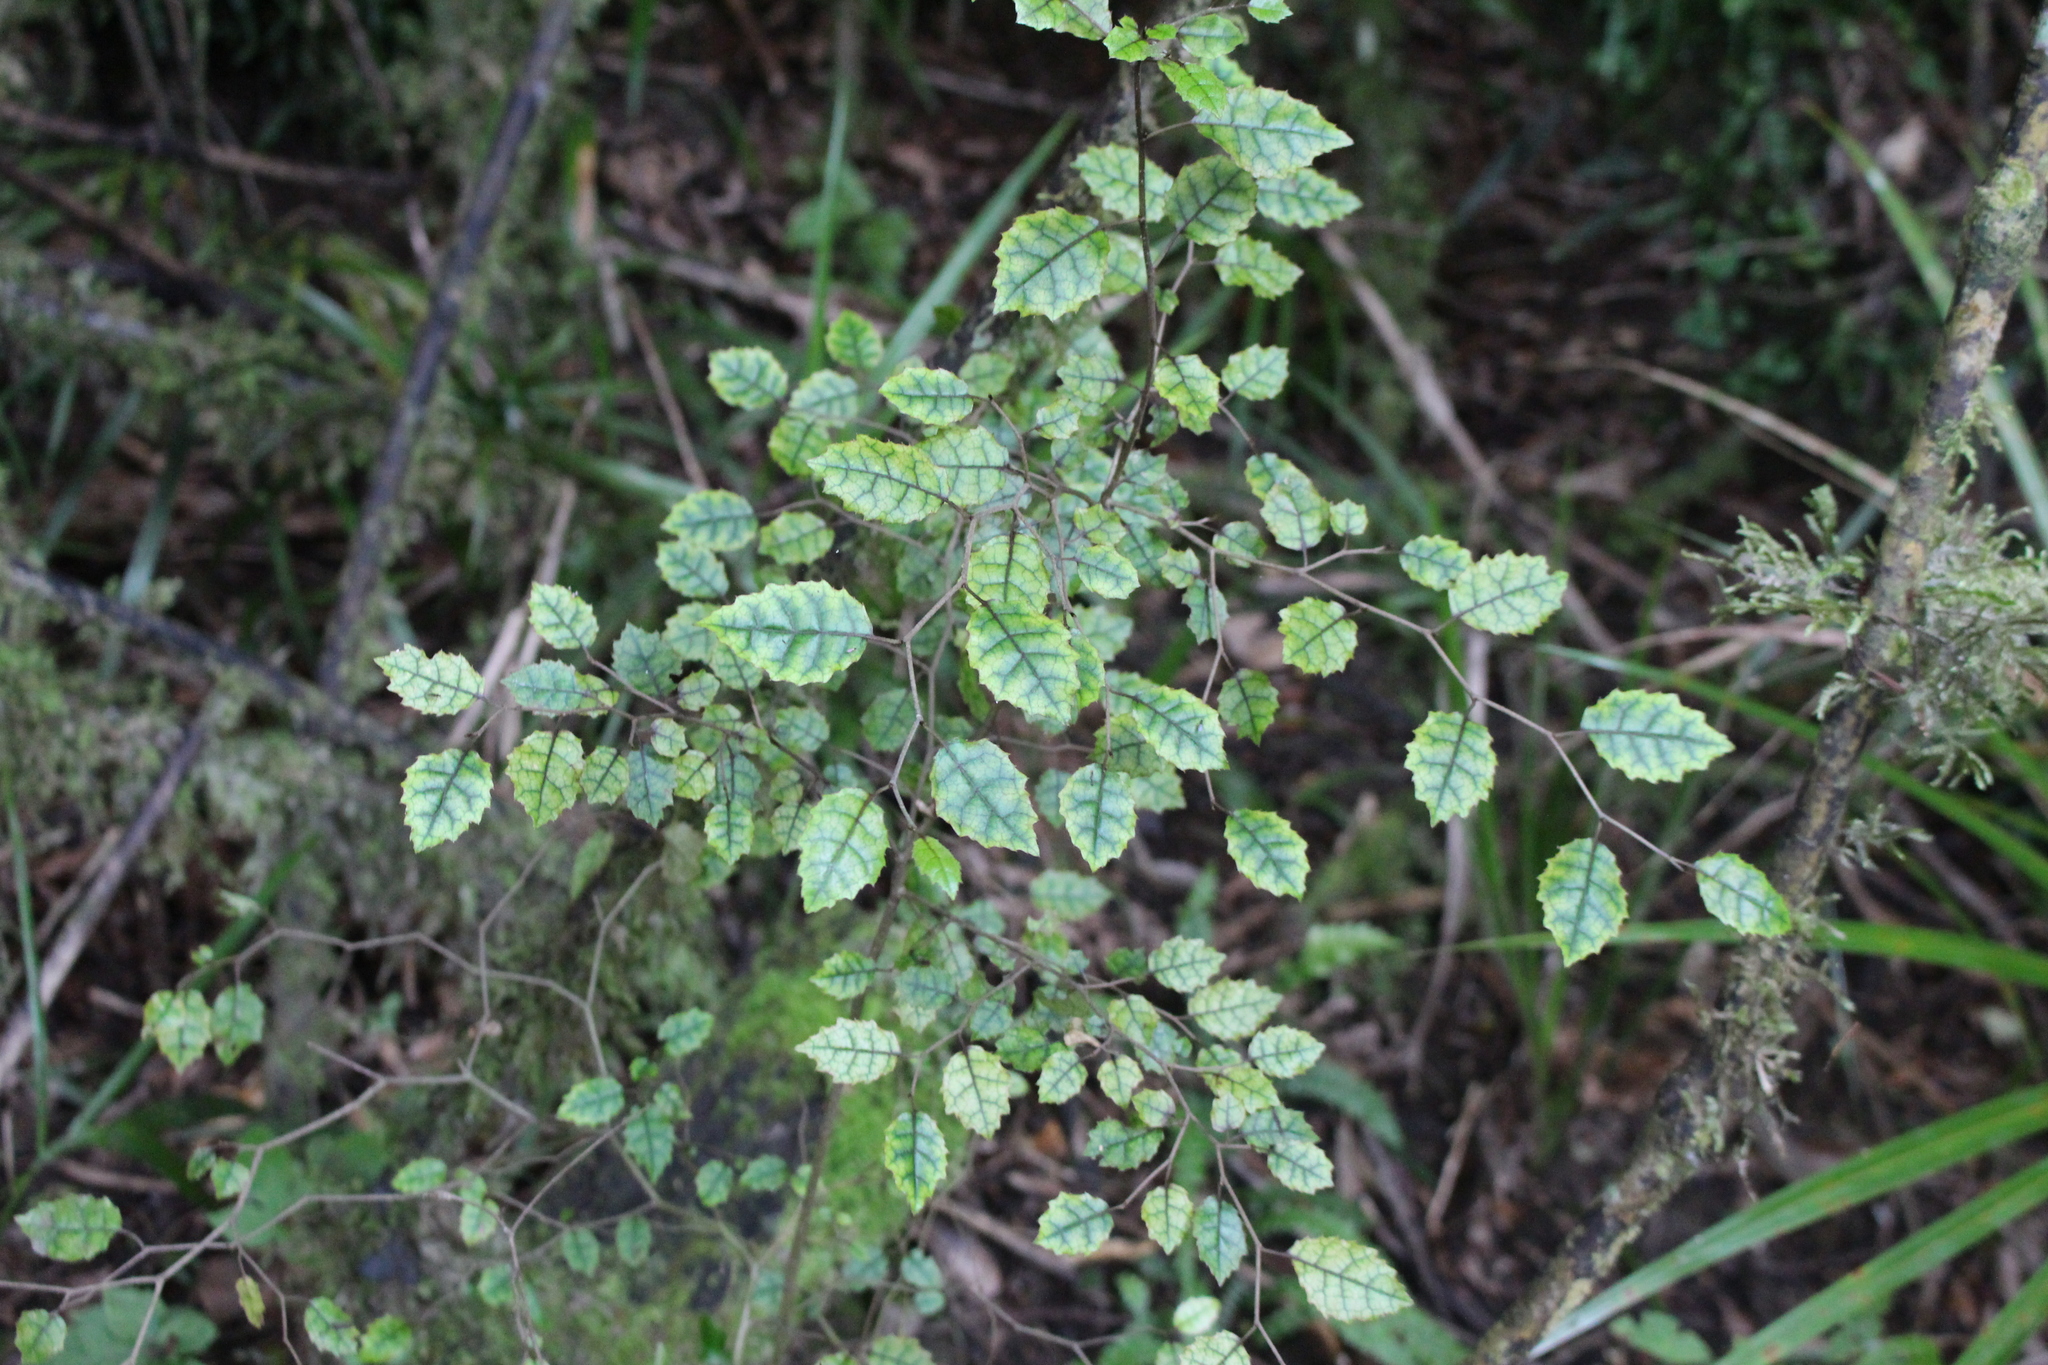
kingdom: Plantae
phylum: Tracheophyta
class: Magnoliopsida
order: Asterales
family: Rousseaceae
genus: Carpodetus
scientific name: Carpodetus serratus
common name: White mapau
